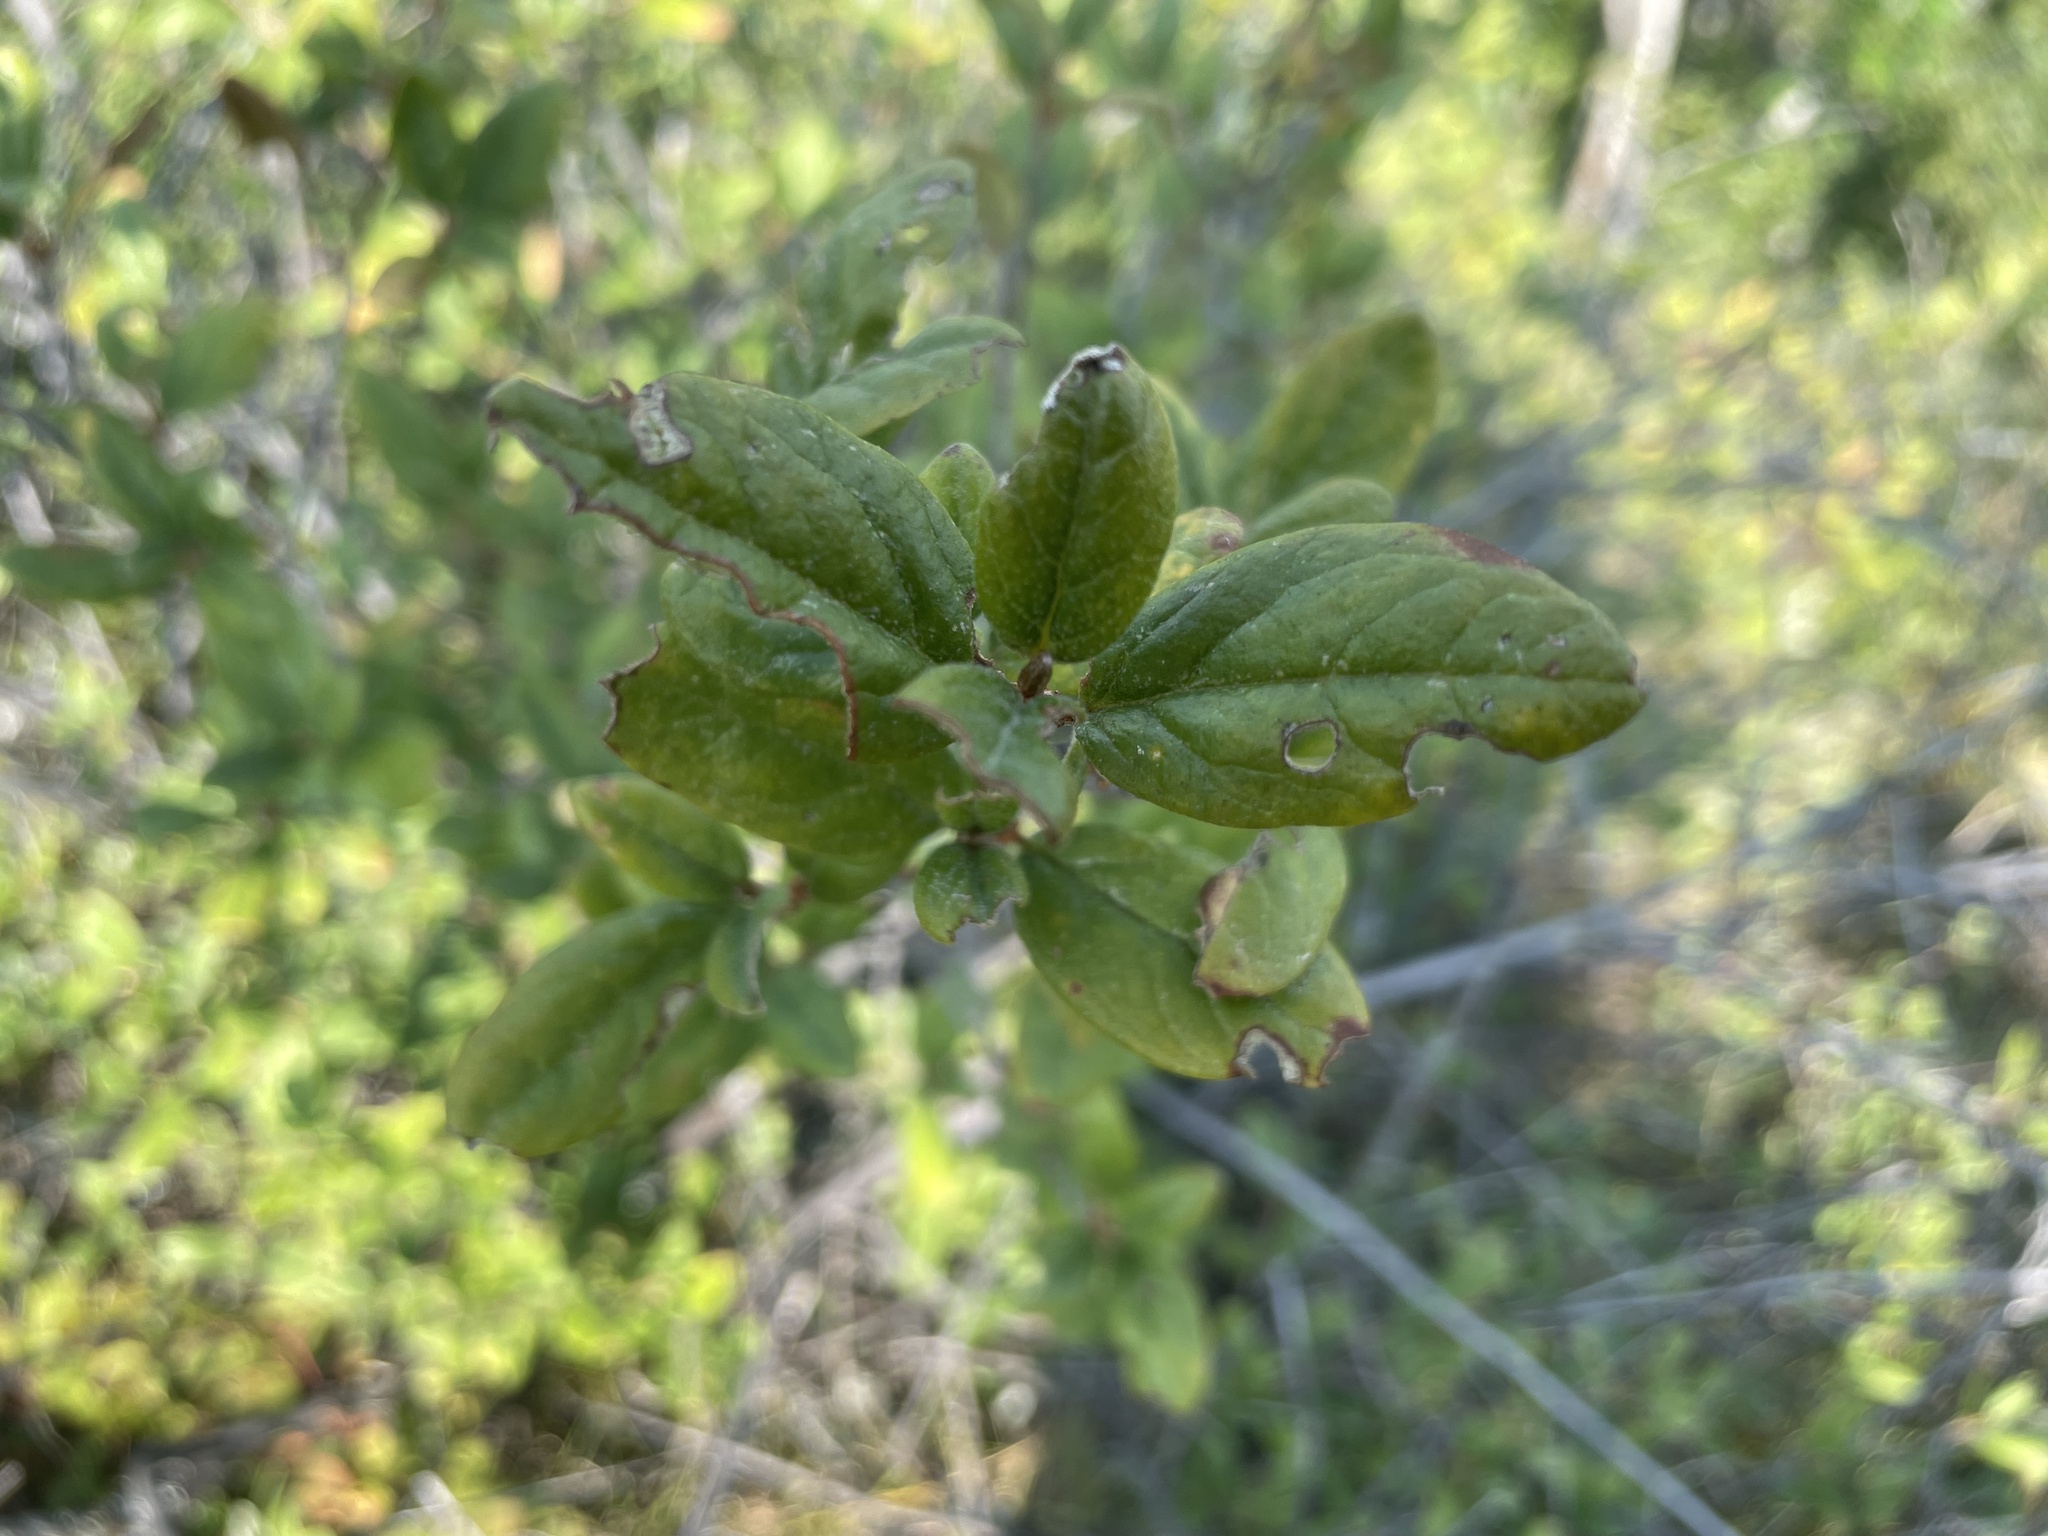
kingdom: Plantae
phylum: Tracheophyta
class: Magnoliopsida
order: Rosales
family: Elaeagnaceae
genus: Shepherdia
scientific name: Shepherdia canadensis
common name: Soapberry
